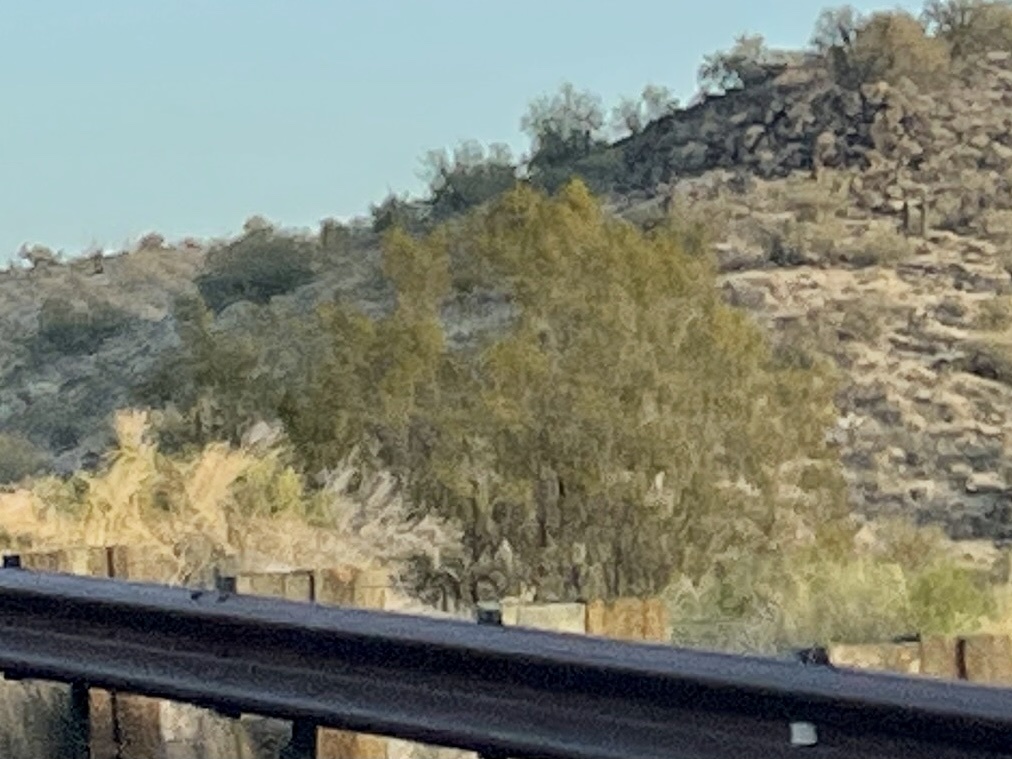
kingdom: Plantae
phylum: Tracheophyta
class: Magnoliopsida
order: Zygophyllales
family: Zygophyllaceae
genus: Larrea
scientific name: Larrea tridentata
